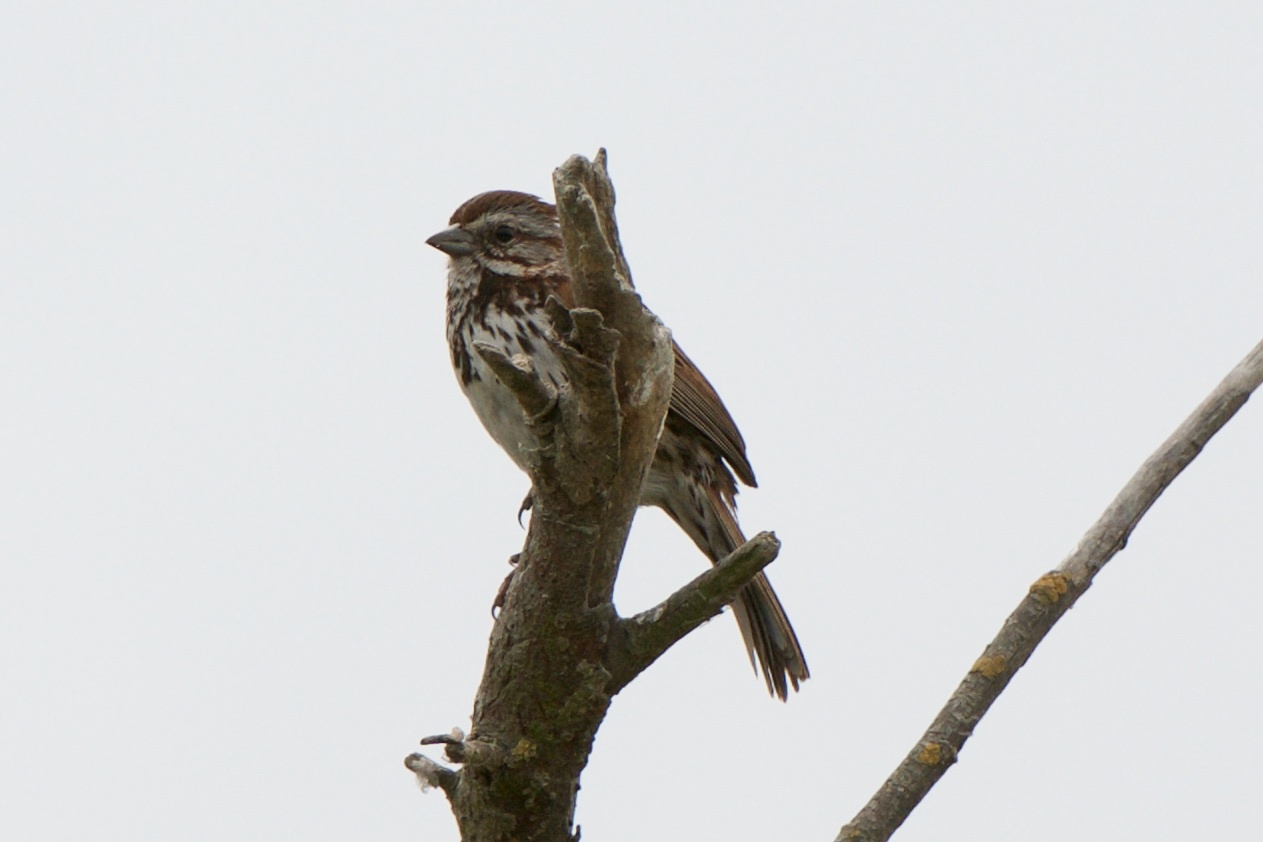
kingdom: Animalia
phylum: Chordata
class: Aves
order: Passeriformes
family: Passerellidae
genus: Melospiza
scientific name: Melospiza melodia
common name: Song sparrow
